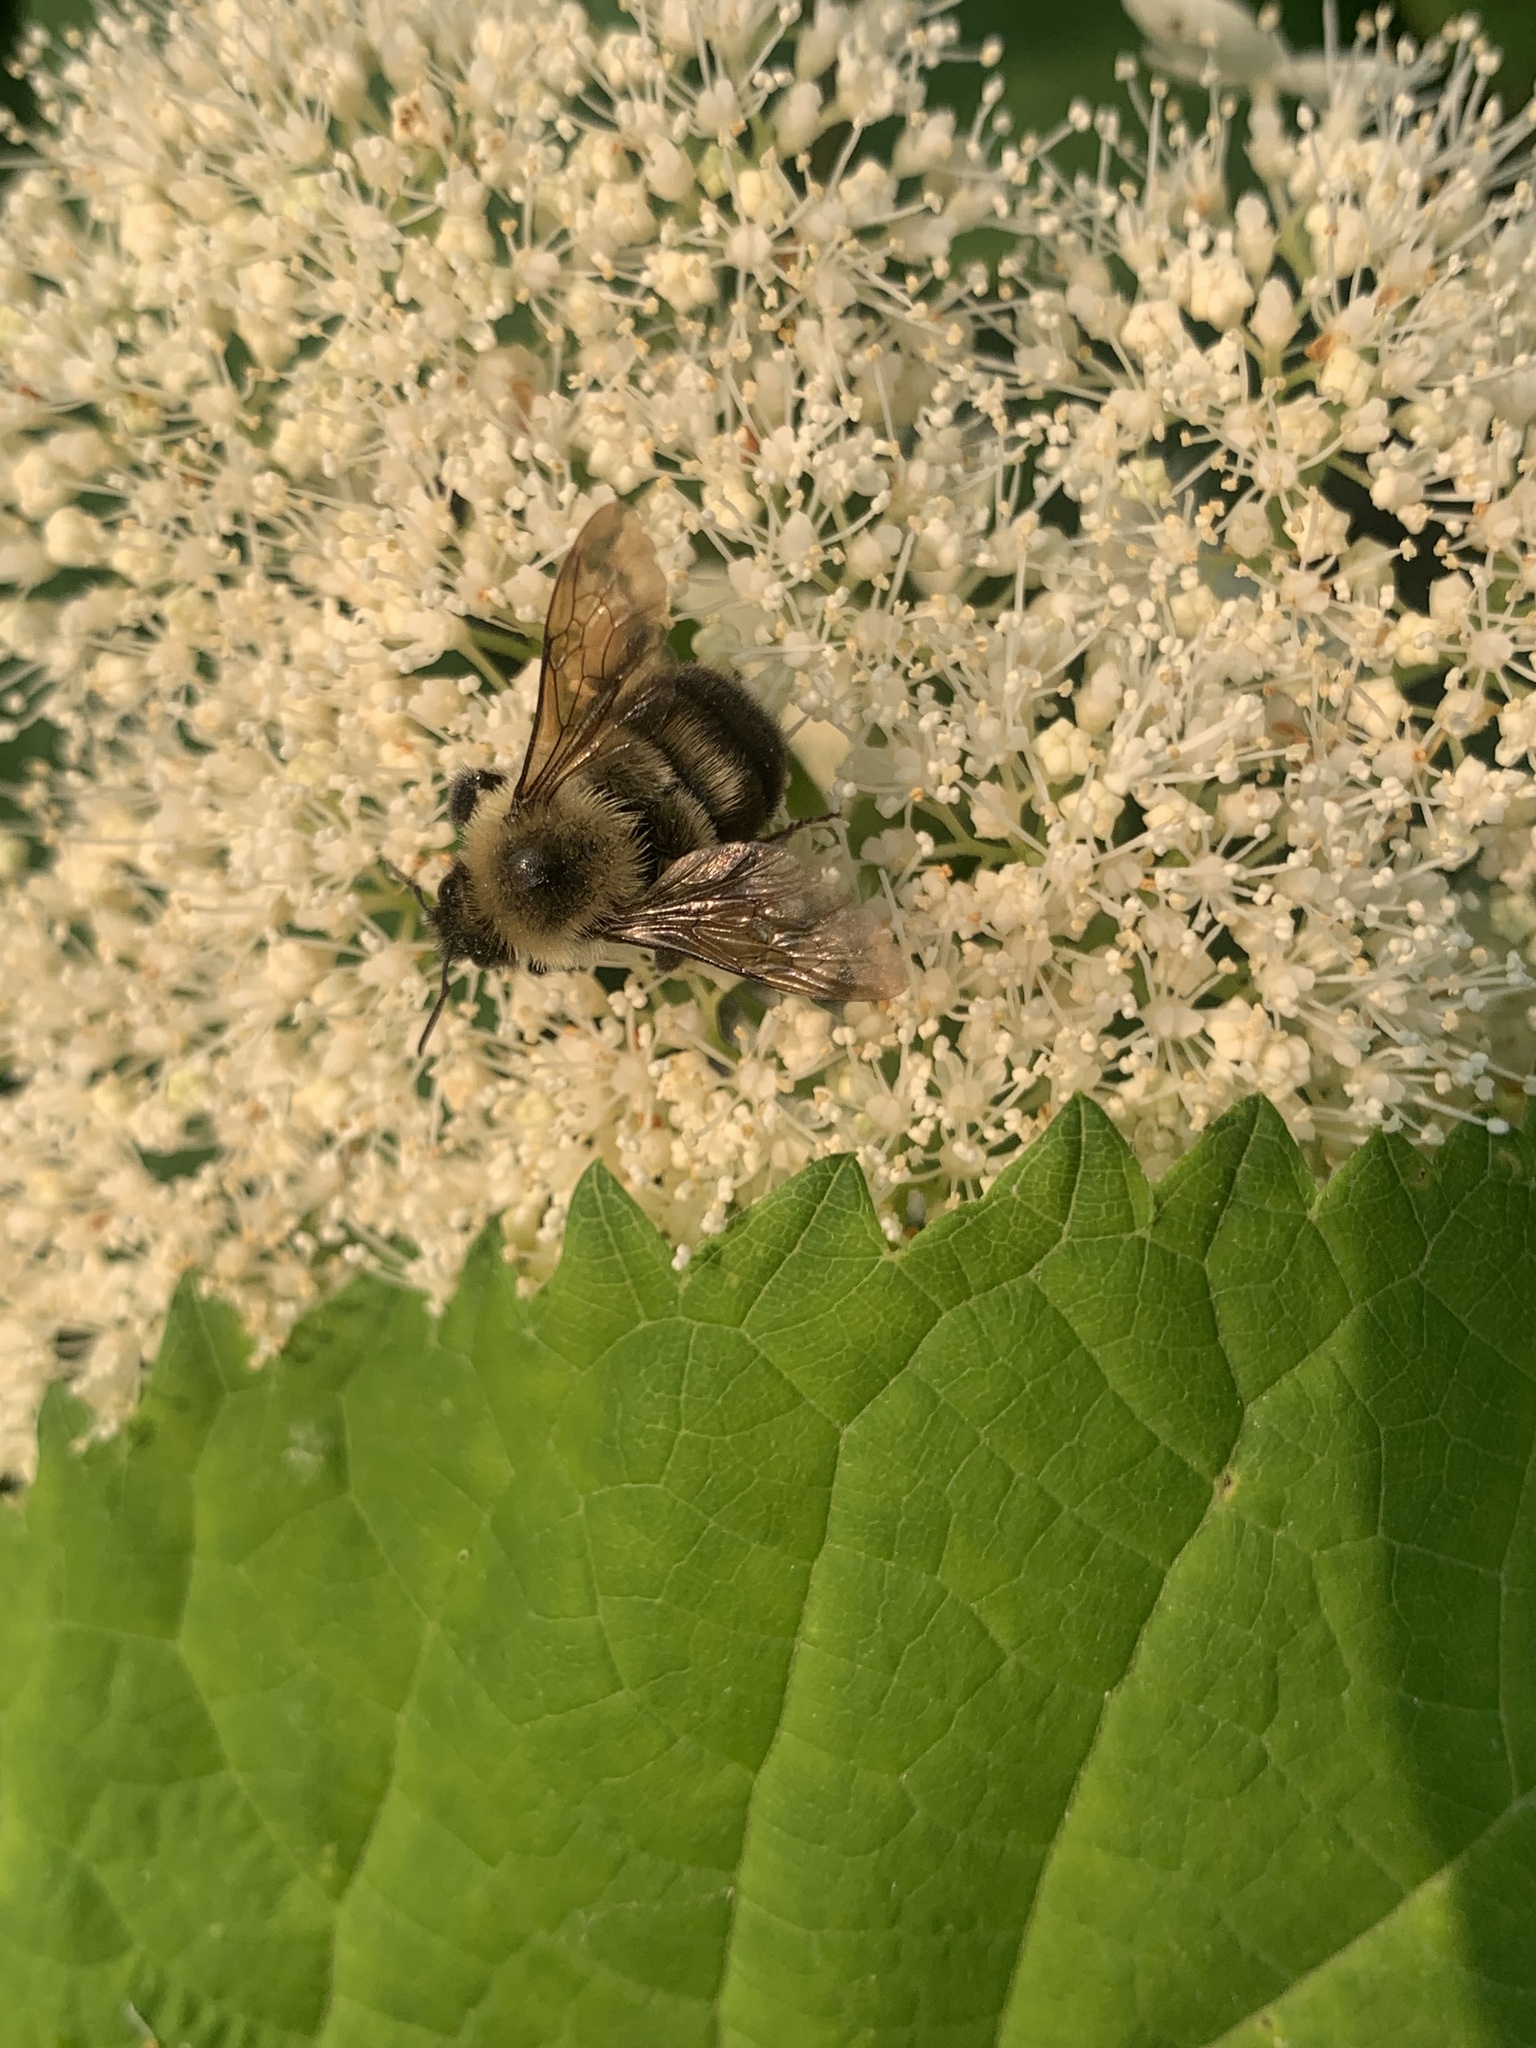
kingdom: Animalia
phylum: Arthropoda
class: Insecta
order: Hymenoptera
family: Apidae
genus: Bombus
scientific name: Bombus bimaculatus
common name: Two-spotted bumble bee
